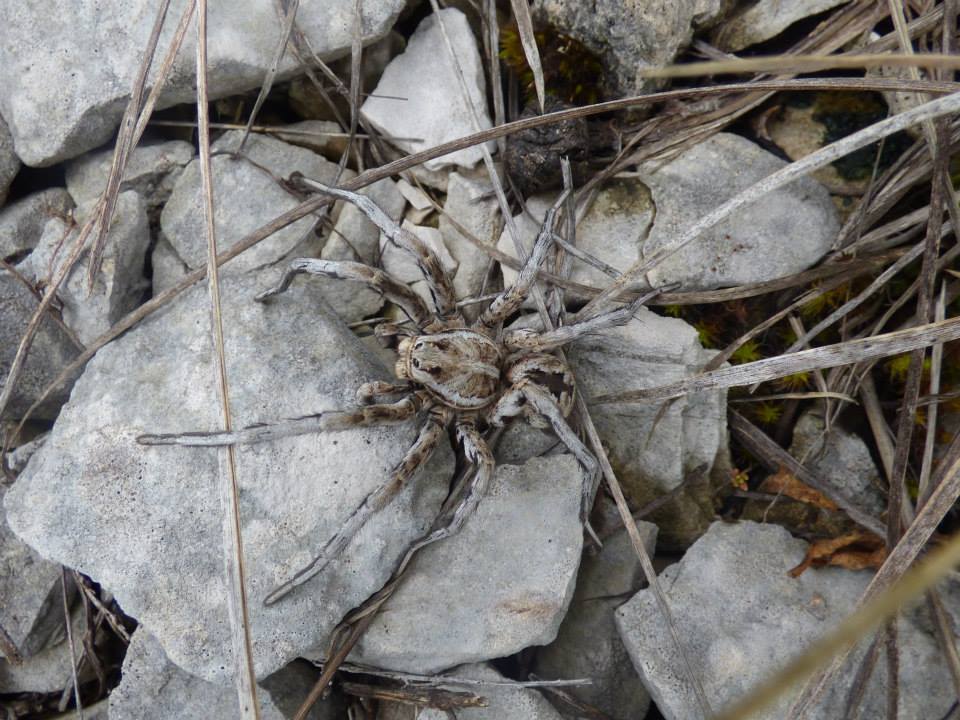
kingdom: Animalia
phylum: Arthropoda
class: Arachnida
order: Araneae
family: Lycosidae
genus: Lycosa
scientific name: Lycosa tarantula
